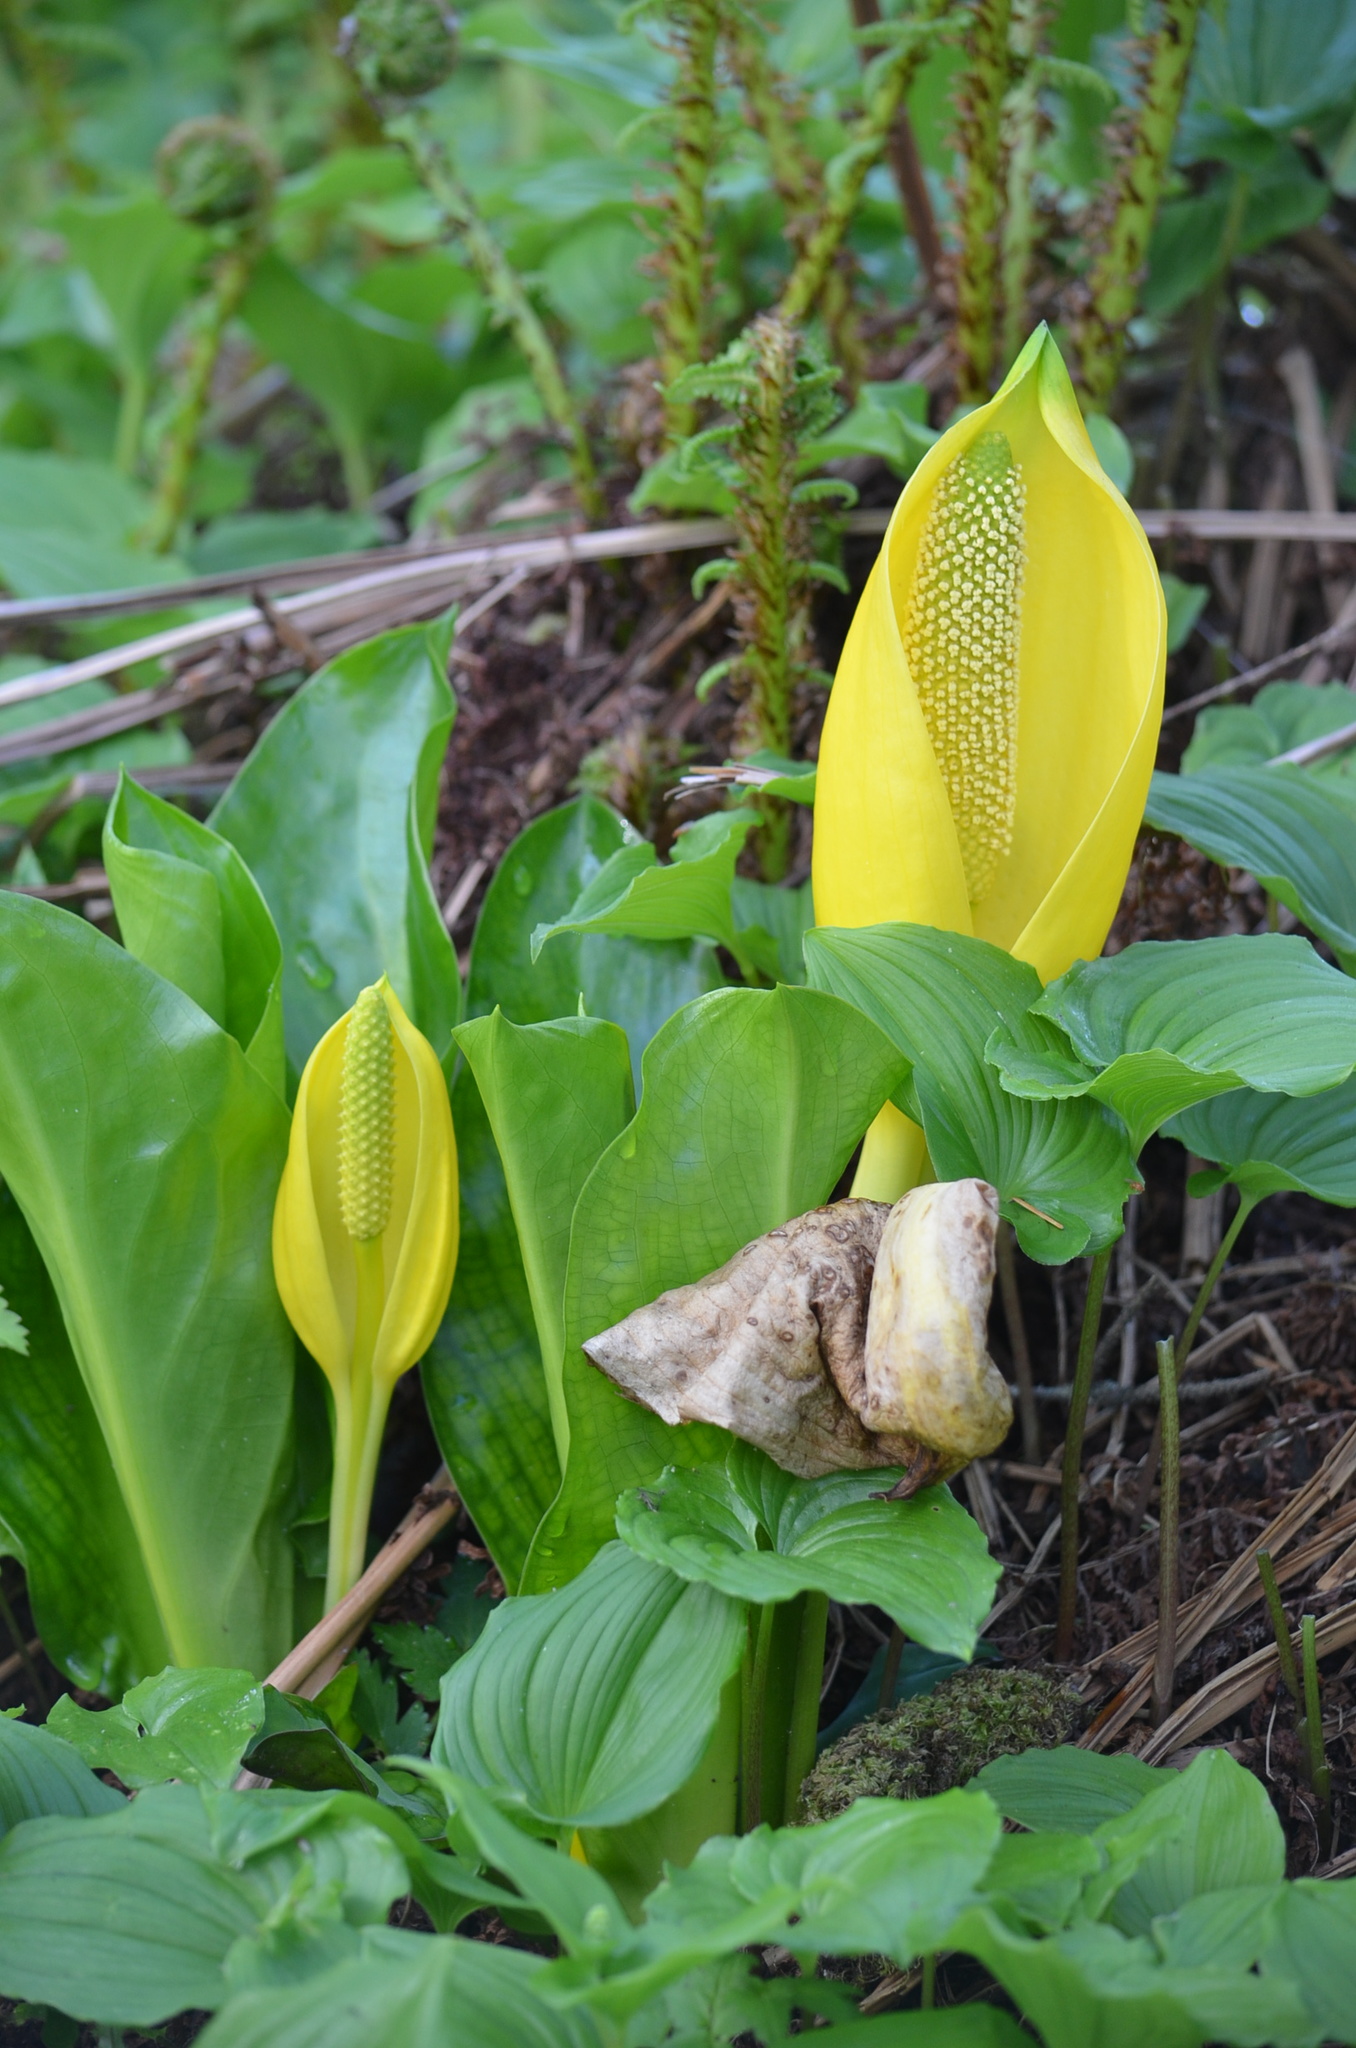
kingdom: Plantae
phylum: Tracheophyta
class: Liliopsida
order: Alismatales
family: Araceae
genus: Lysichiton
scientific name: Lysichiton americanus
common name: American skunk cabbage
